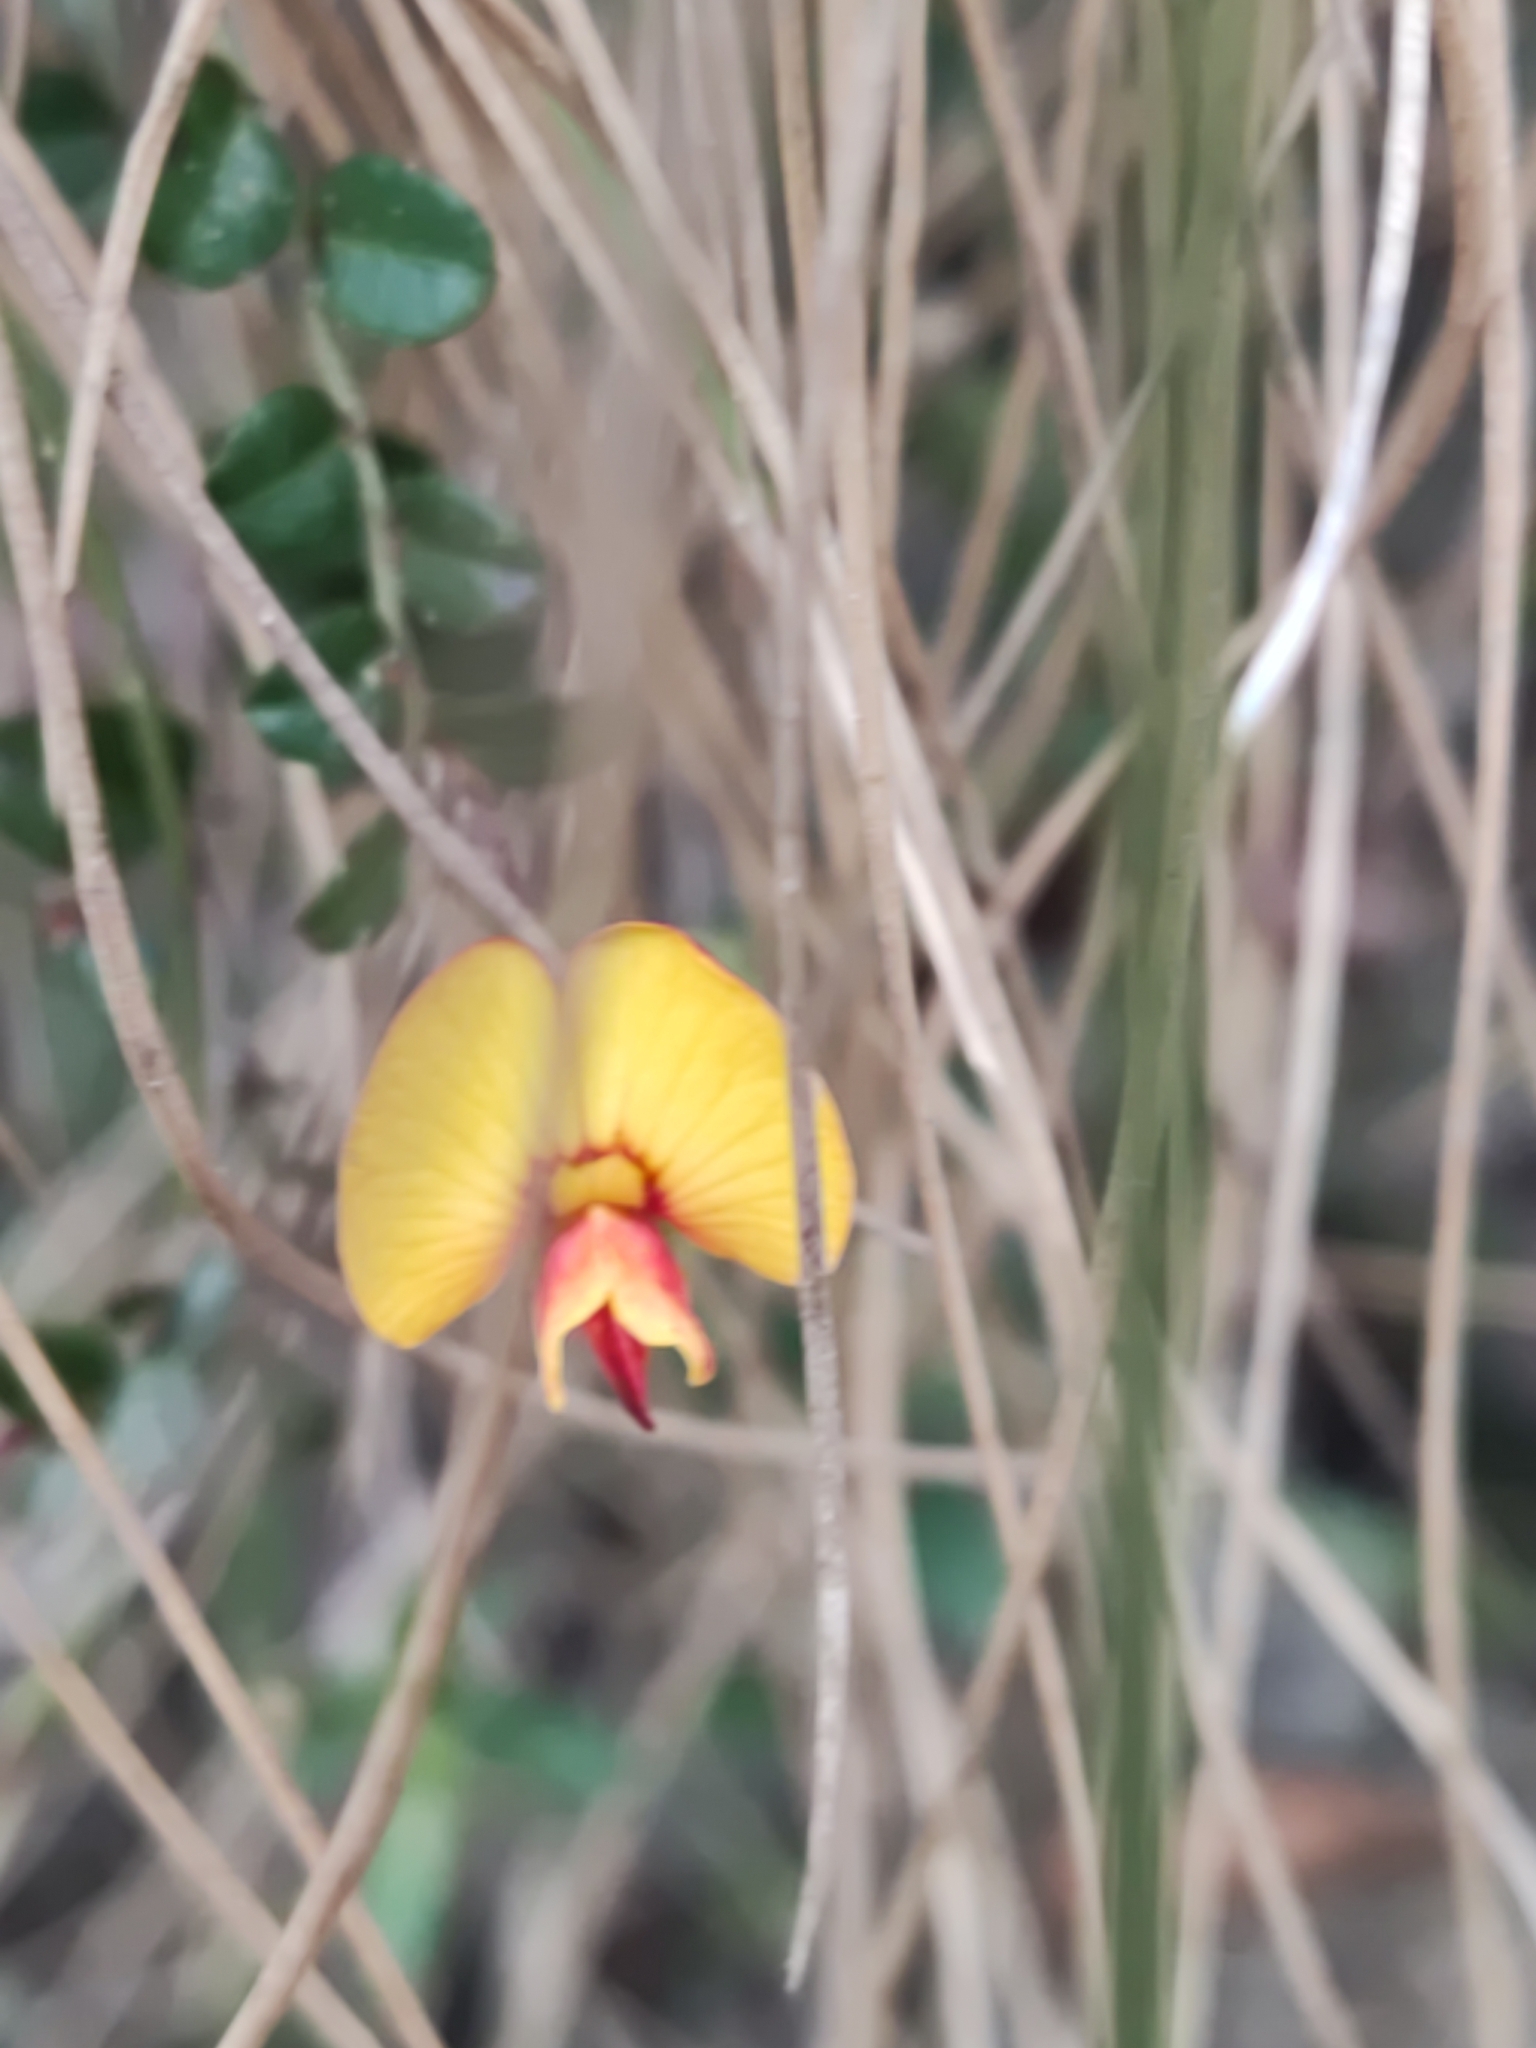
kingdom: Plantae
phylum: Tracheophyta
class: Magnoliopsida
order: Fabales
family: Fabaceae
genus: Bossiaea
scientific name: Bossiaea buxifolia
